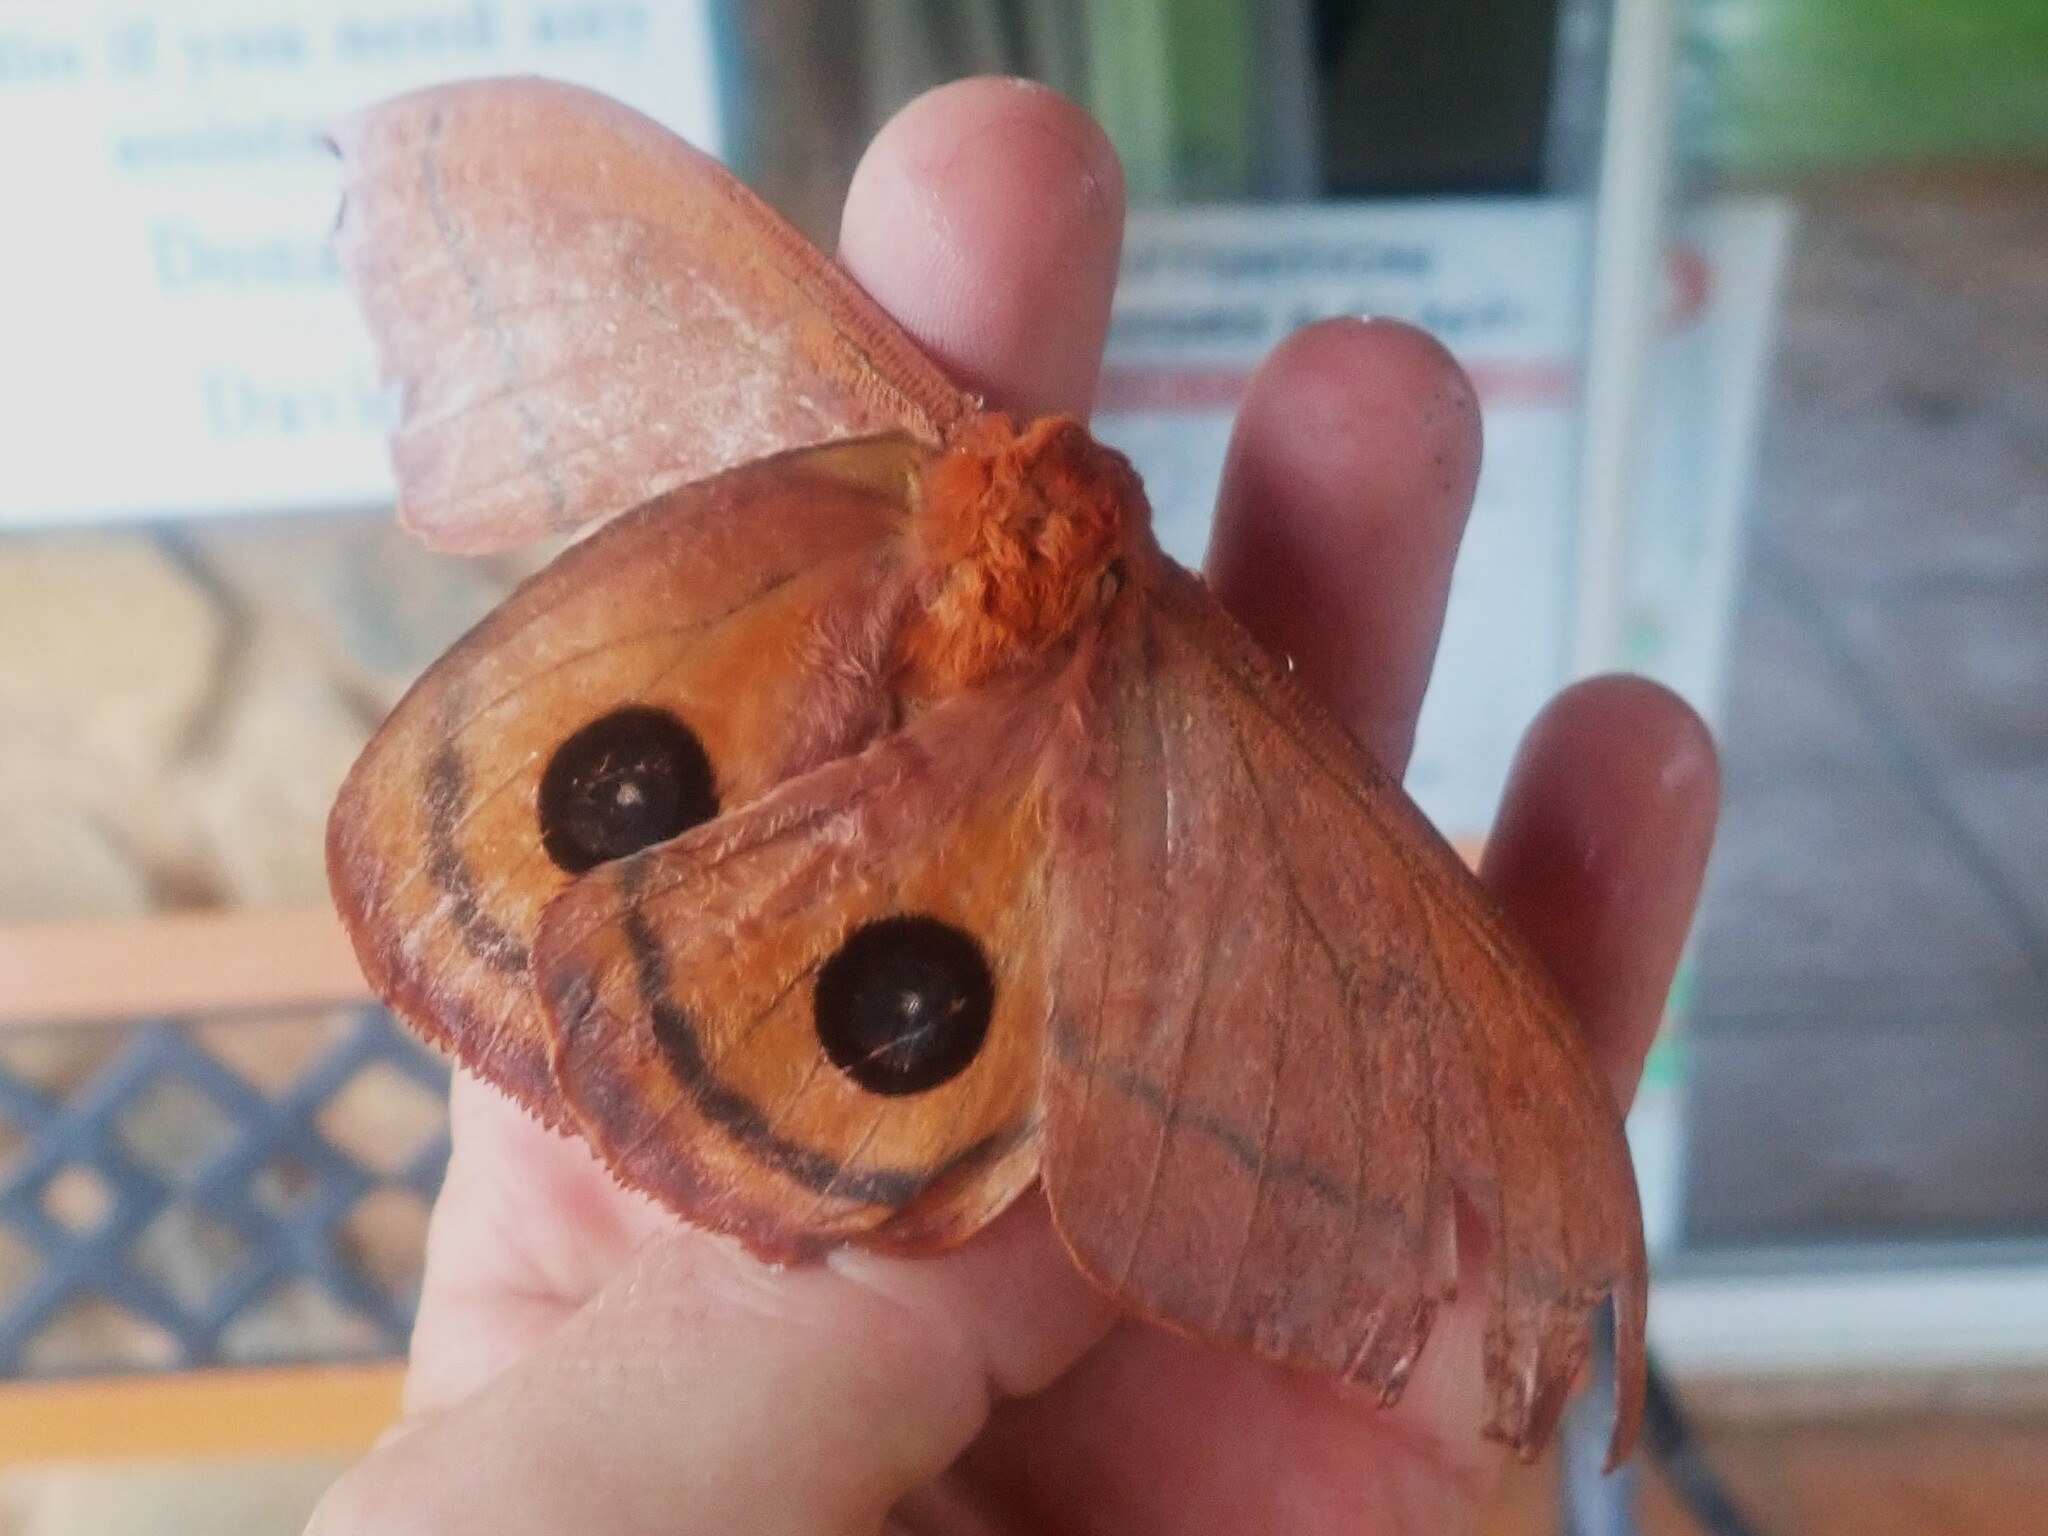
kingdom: Animalia
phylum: Arthropoda
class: Insecta
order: Lepidoptera
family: Saturniidae
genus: Cinabra
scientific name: Cinabra hyperbius
